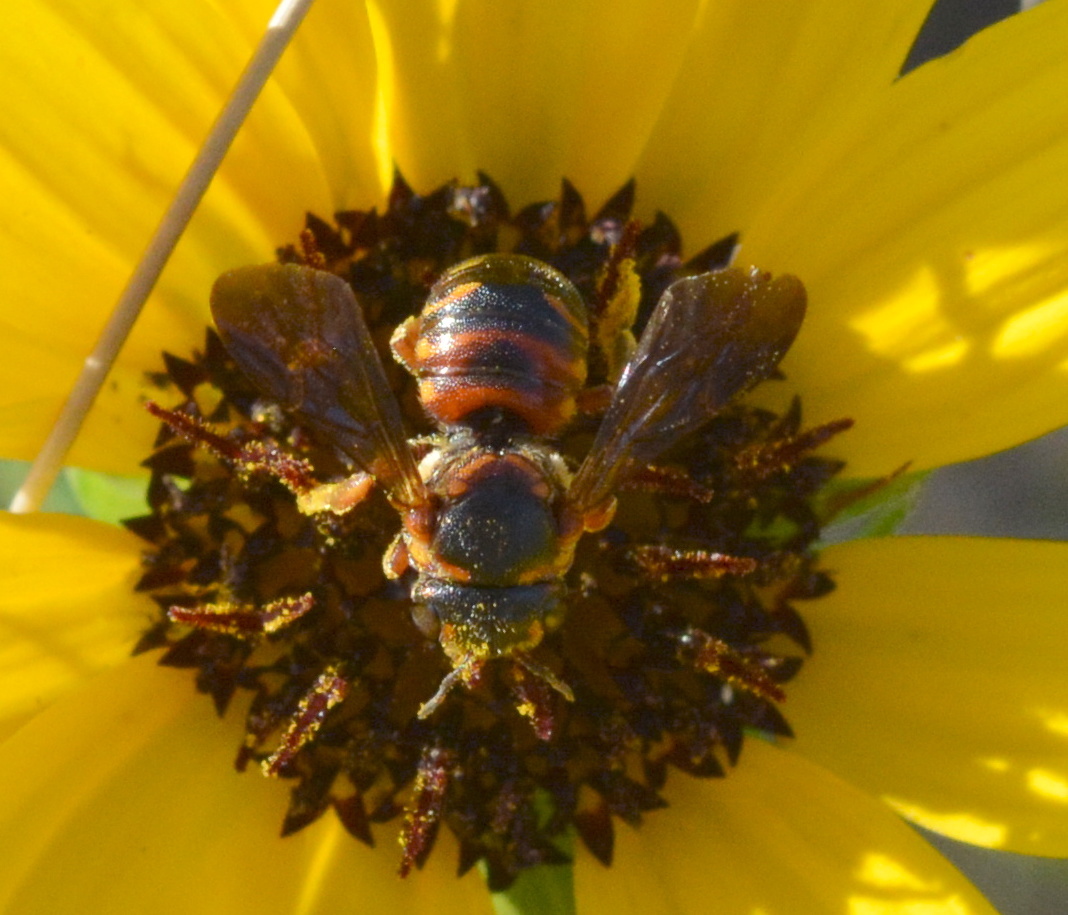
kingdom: Animalia
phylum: Arthropoda
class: Insecta
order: Hymenoptera
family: Megachilidae
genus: Dianthidium
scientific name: Dianthidium floridiense
